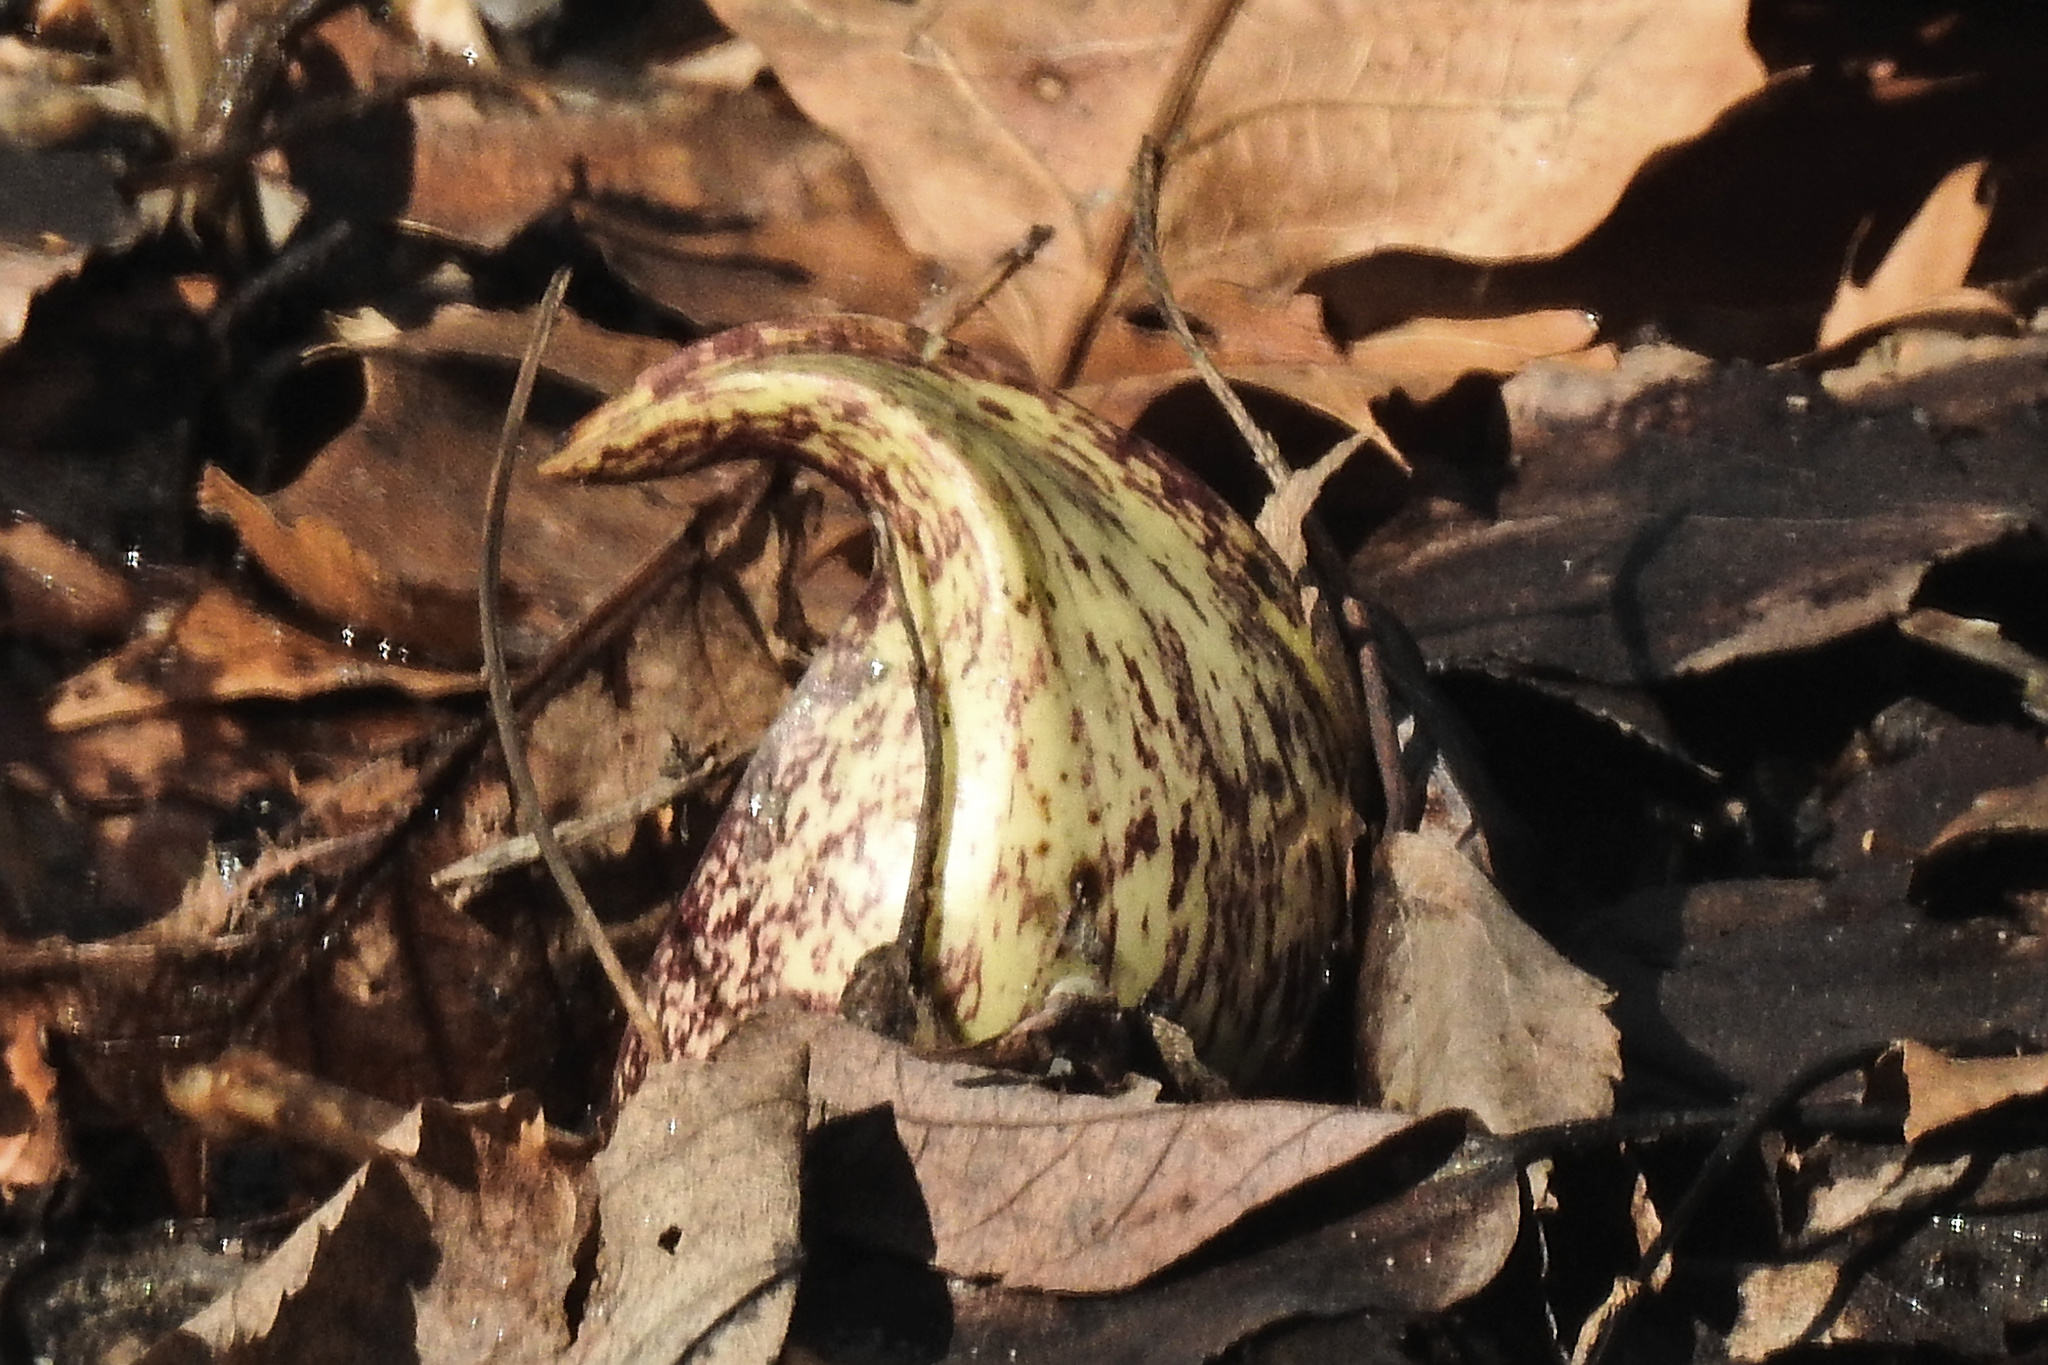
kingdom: Plantae
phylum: Tracheophyta
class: Liliopsida
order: Alismatales
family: Araceae
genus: Symplocarpus
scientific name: Symplocarpus foetidus
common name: Eastern skunk cabbage
